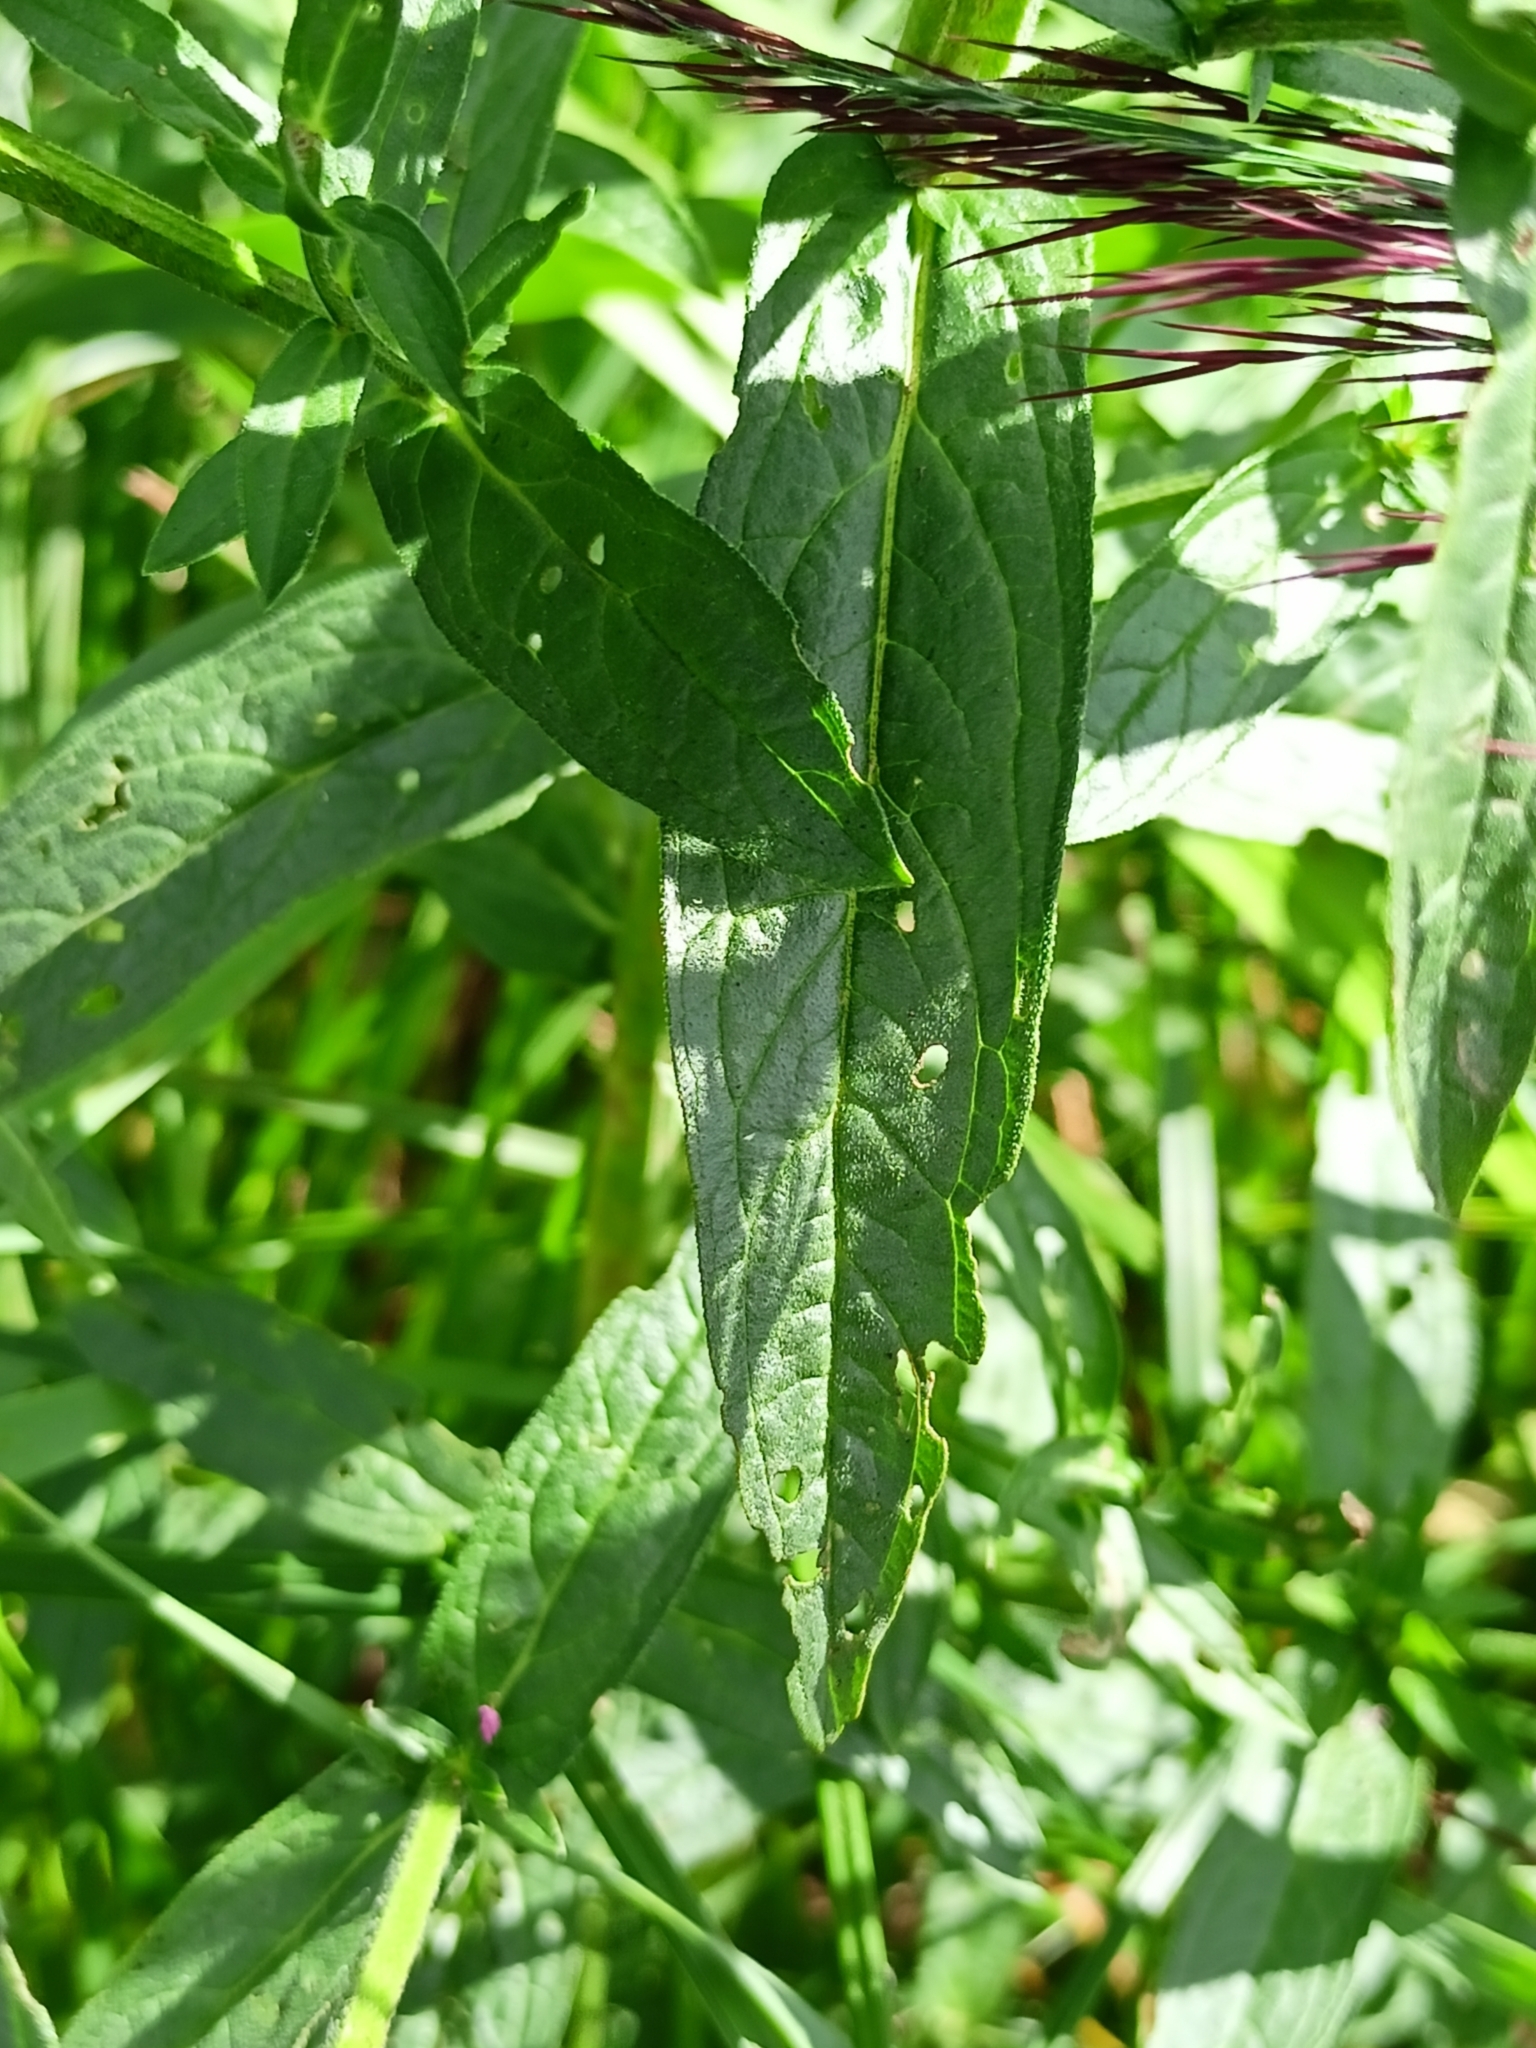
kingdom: Plantae
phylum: Tracheophyta
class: Magnoliopsida
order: Myrtales
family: Lythraceae
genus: Lythrum
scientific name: Lythrum salicaria
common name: Purple loosestrife
